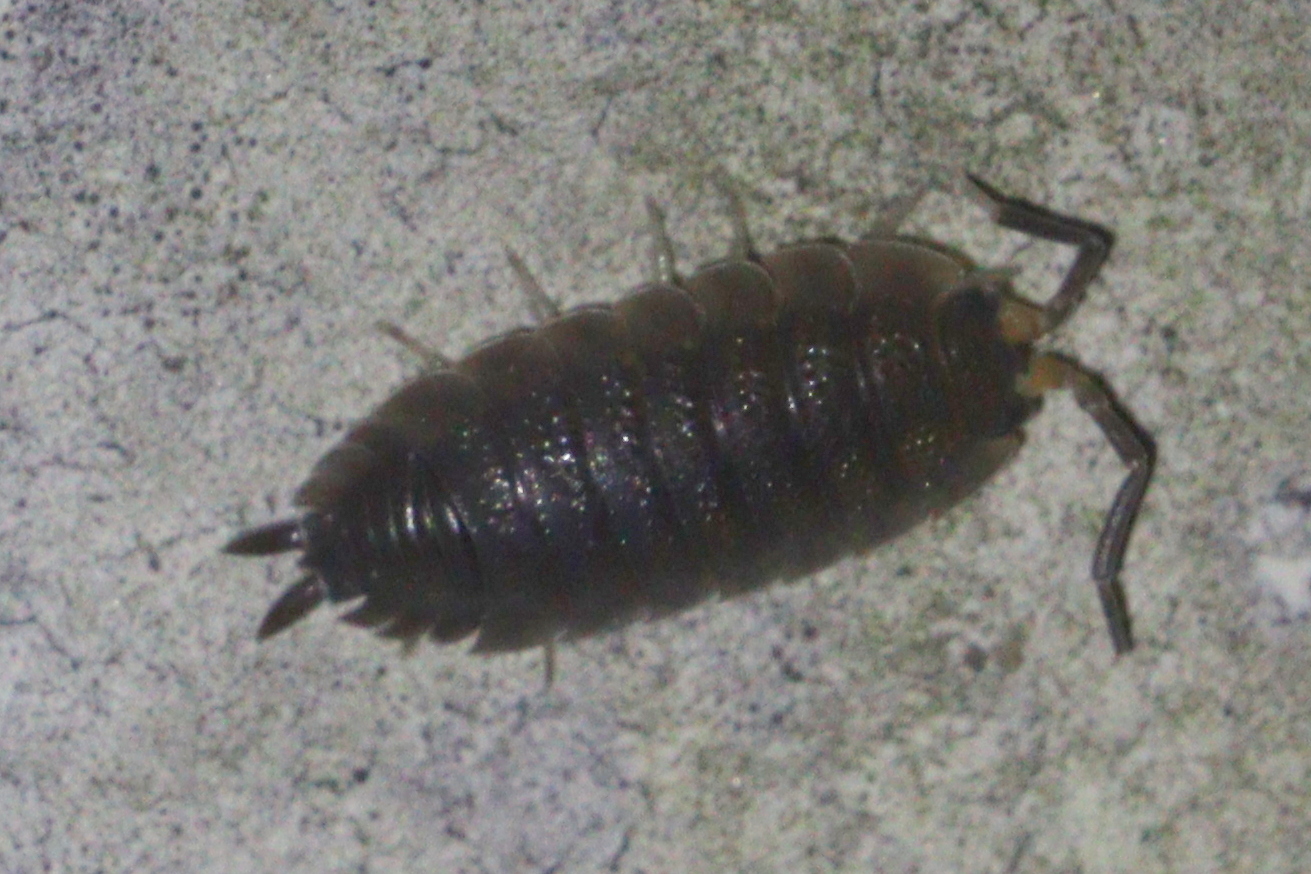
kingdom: Animalia
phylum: Arthropoda
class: Malacostraca
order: Isopoda
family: Porcellionidae
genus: Porcellio
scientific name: Porcellio scaber
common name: Common rough woodlouse
